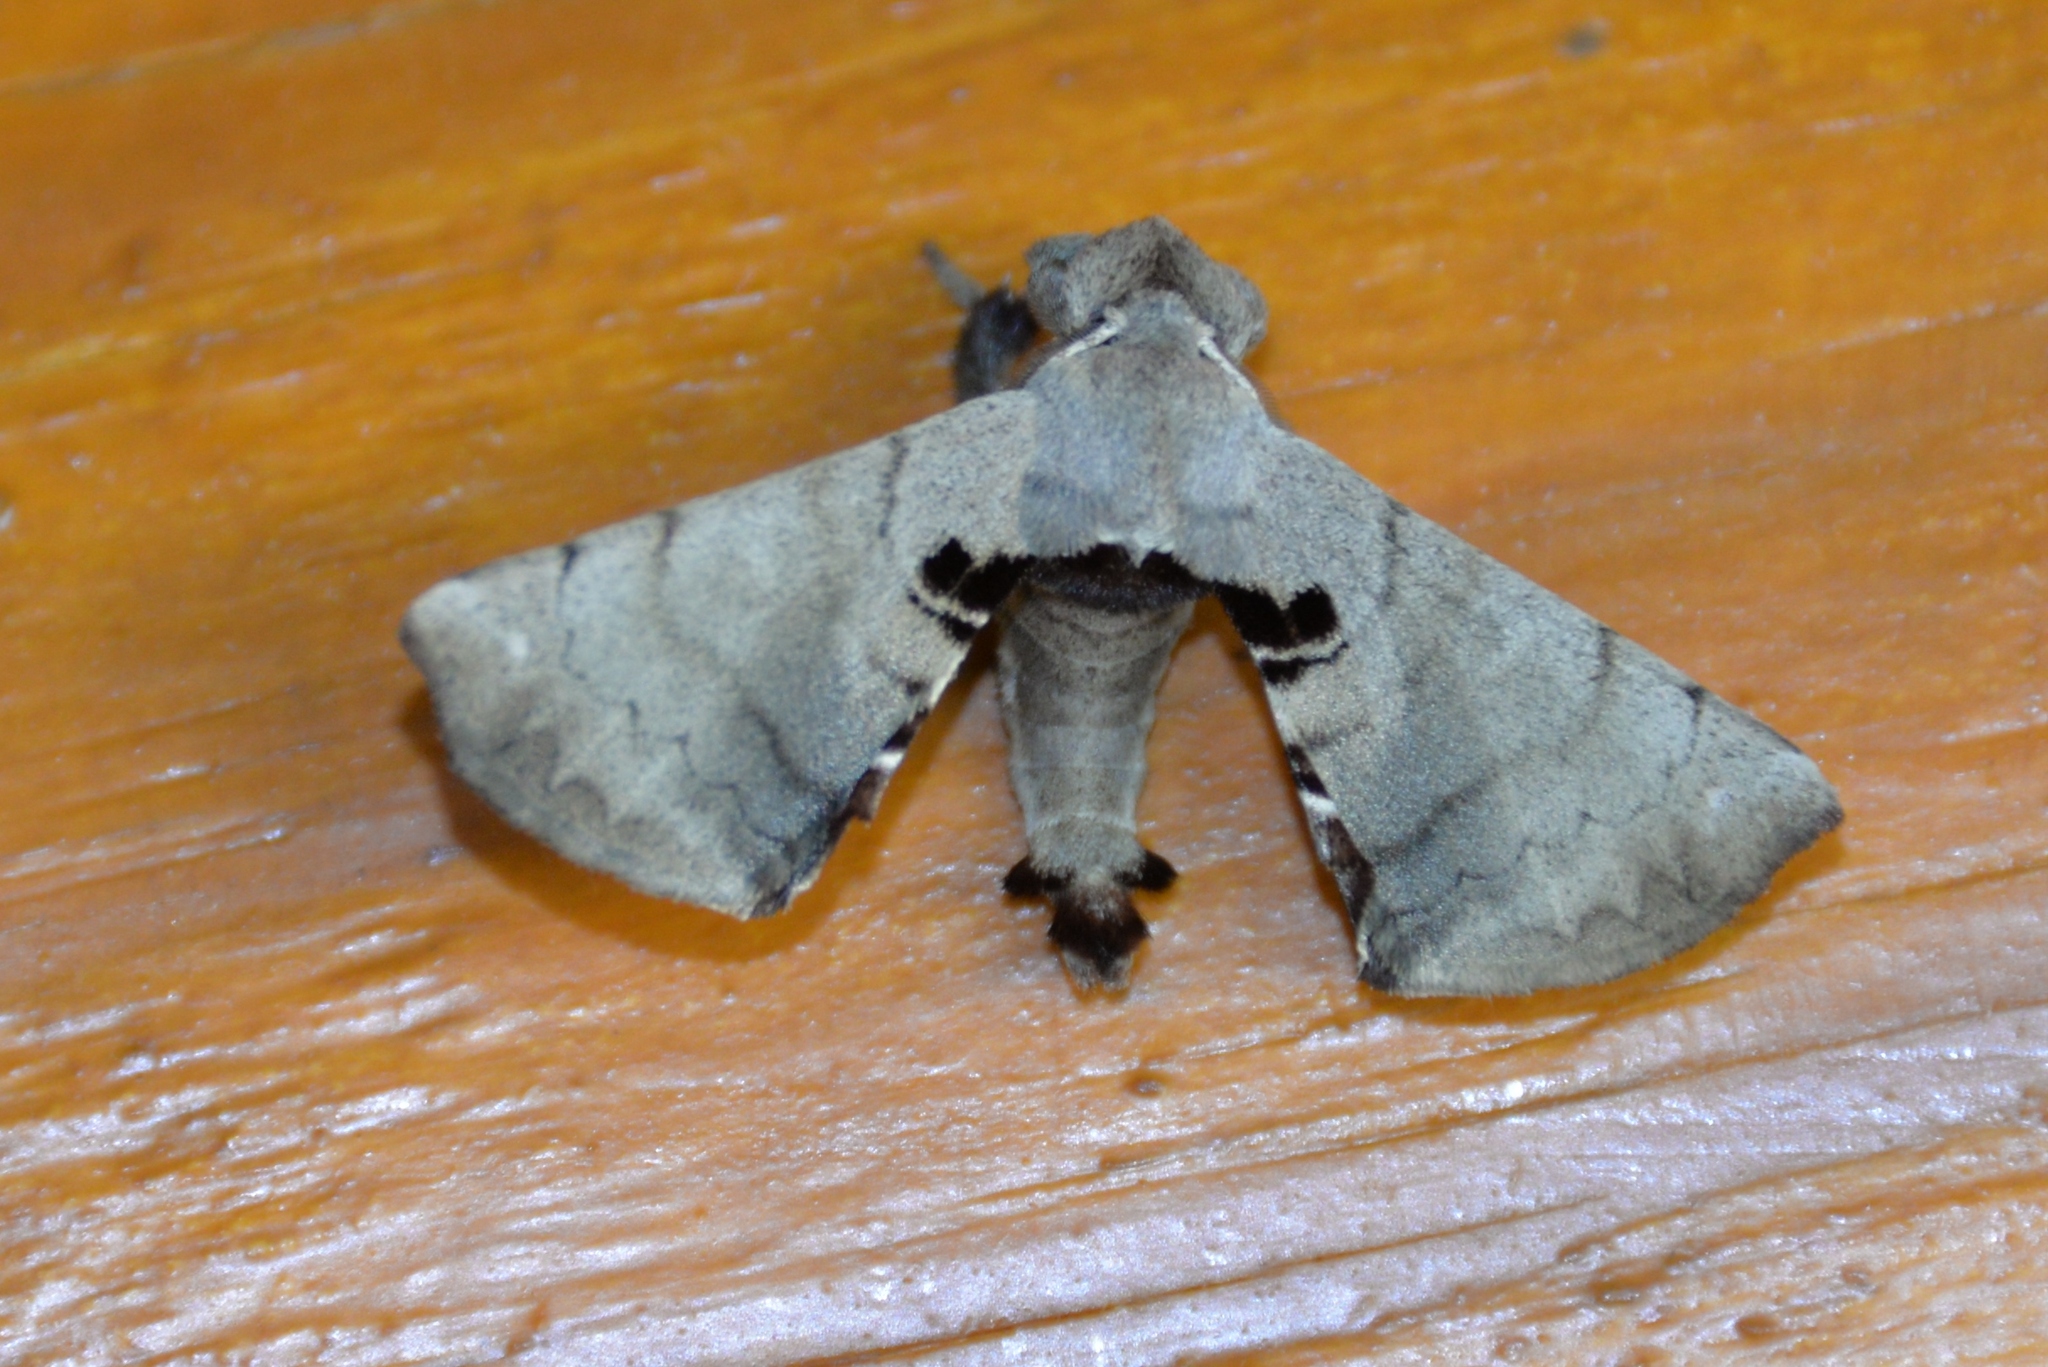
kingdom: Animalia
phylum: Arthropoda
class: Insecta
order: Lepidoptera
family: Apatelodidae
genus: Hygrochroa
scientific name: Hygrochroa Apatelodes torrefacta
